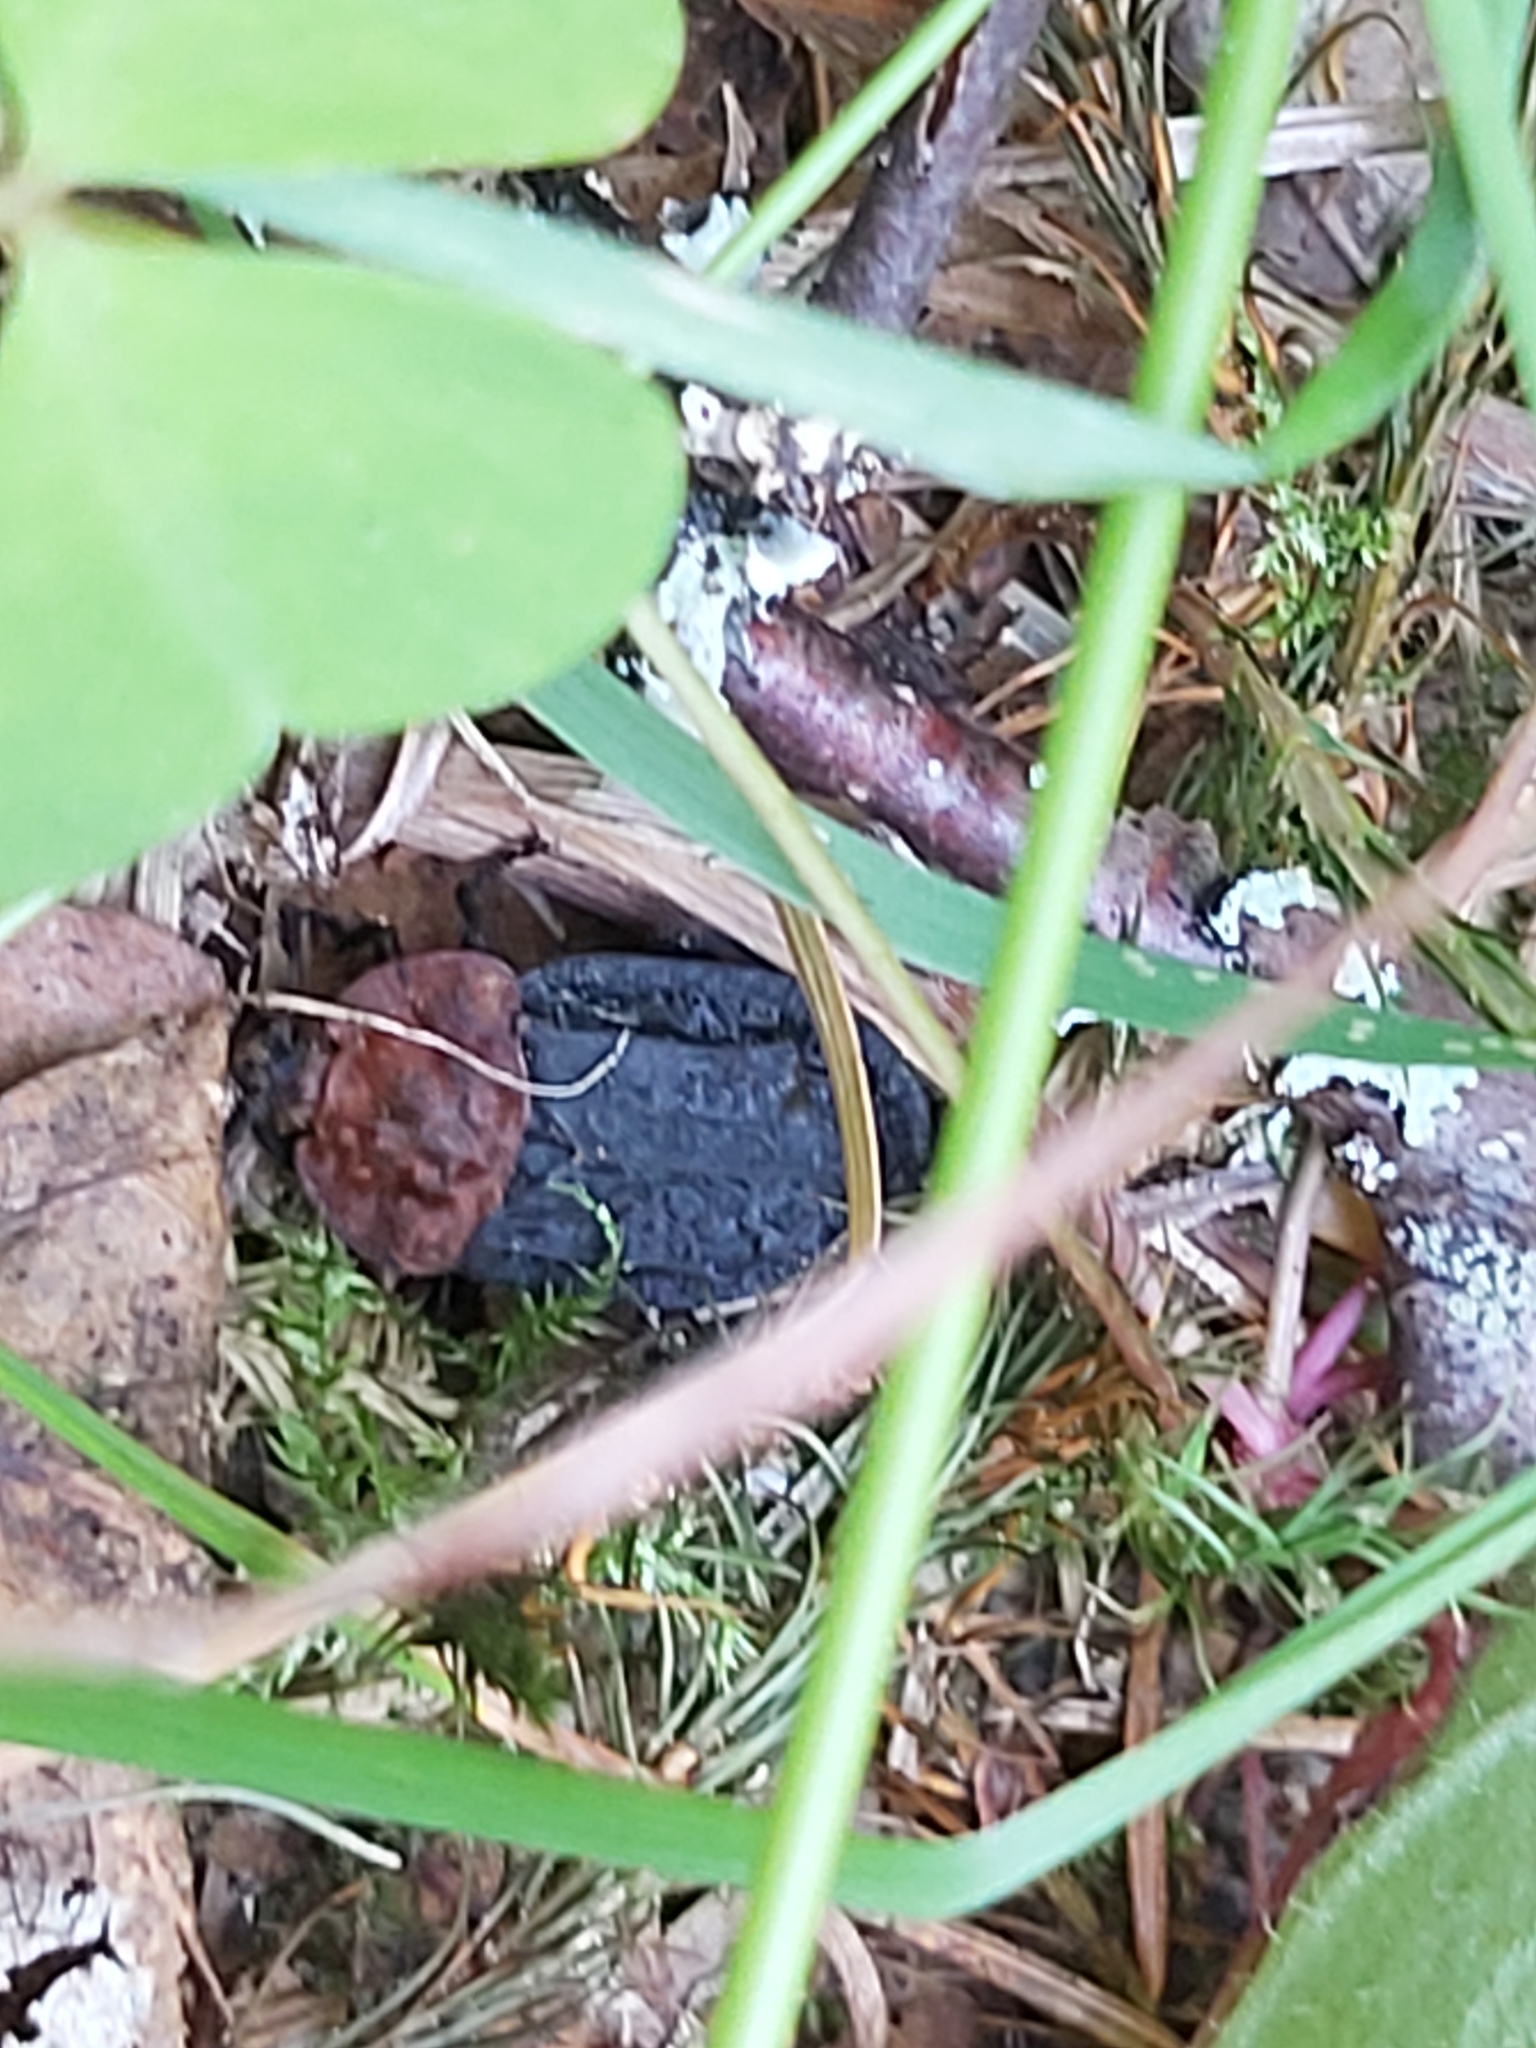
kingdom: Animalia
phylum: Arthropoda
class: Insecta
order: Coleoptera
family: Staphylinidae
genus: Oiceoptoma
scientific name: Oiceoptoma thoracicum
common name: Red-breasted carrion beetle
